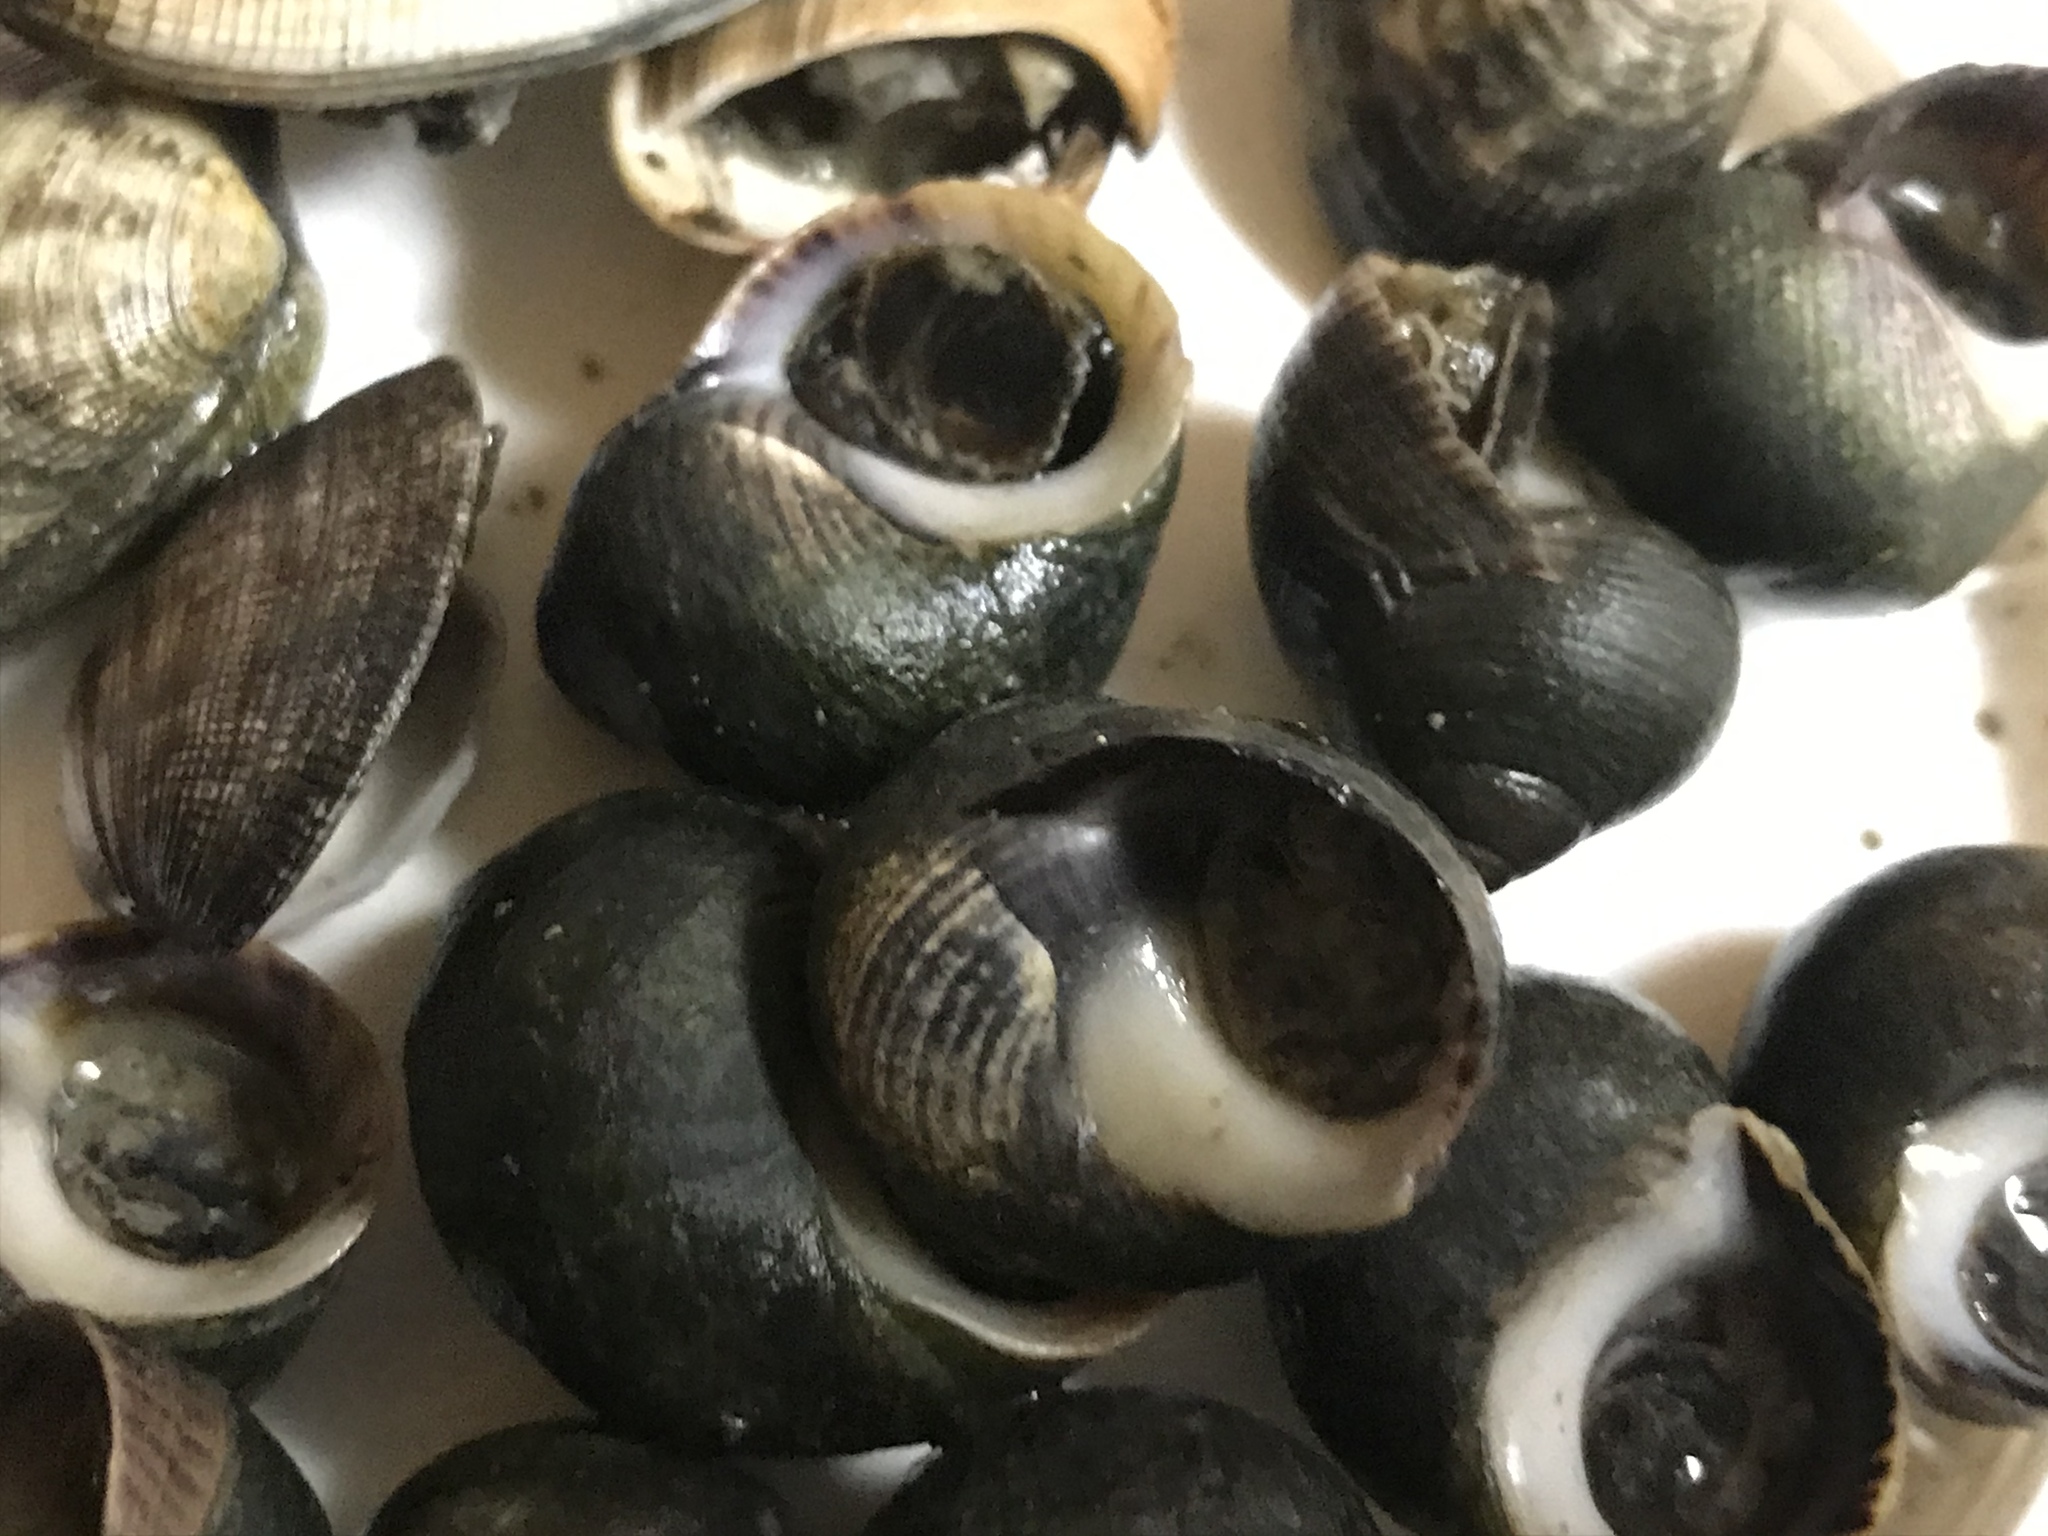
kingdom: Animalia
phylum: Mollusca
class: Gastropoda
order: Littorinimorpha
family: Littorinidae
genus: Littorina
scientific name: Littorina littorea
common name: Common periwinkle
